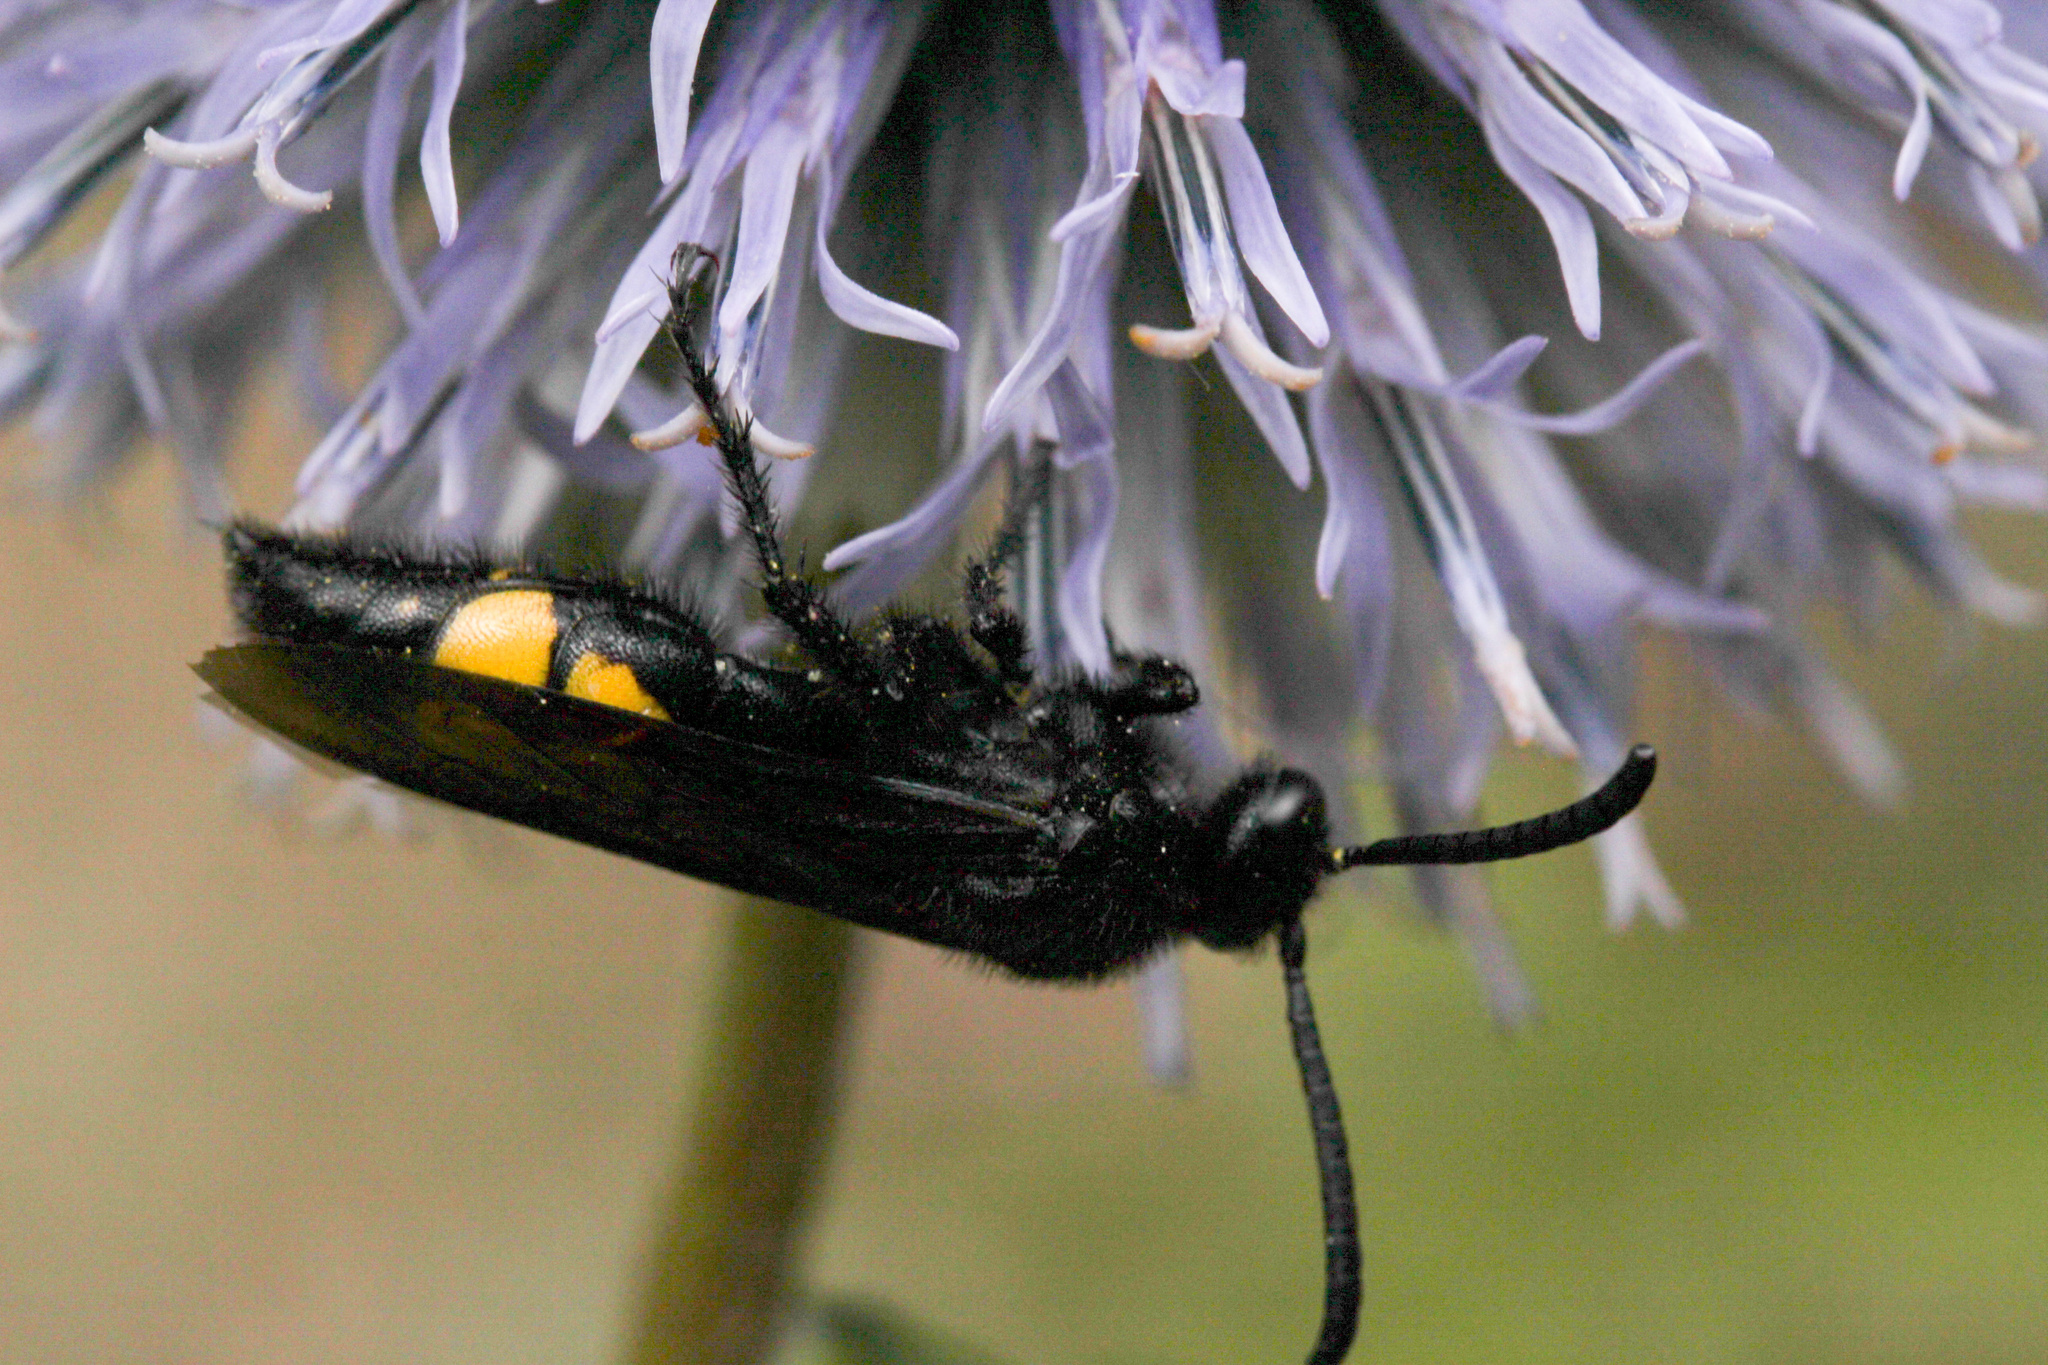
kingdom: Animalia
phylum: Arthropoda
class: Insecta
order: Hymenoptera
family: Scoliidae
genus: Scolia
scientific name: Scolia hirta
